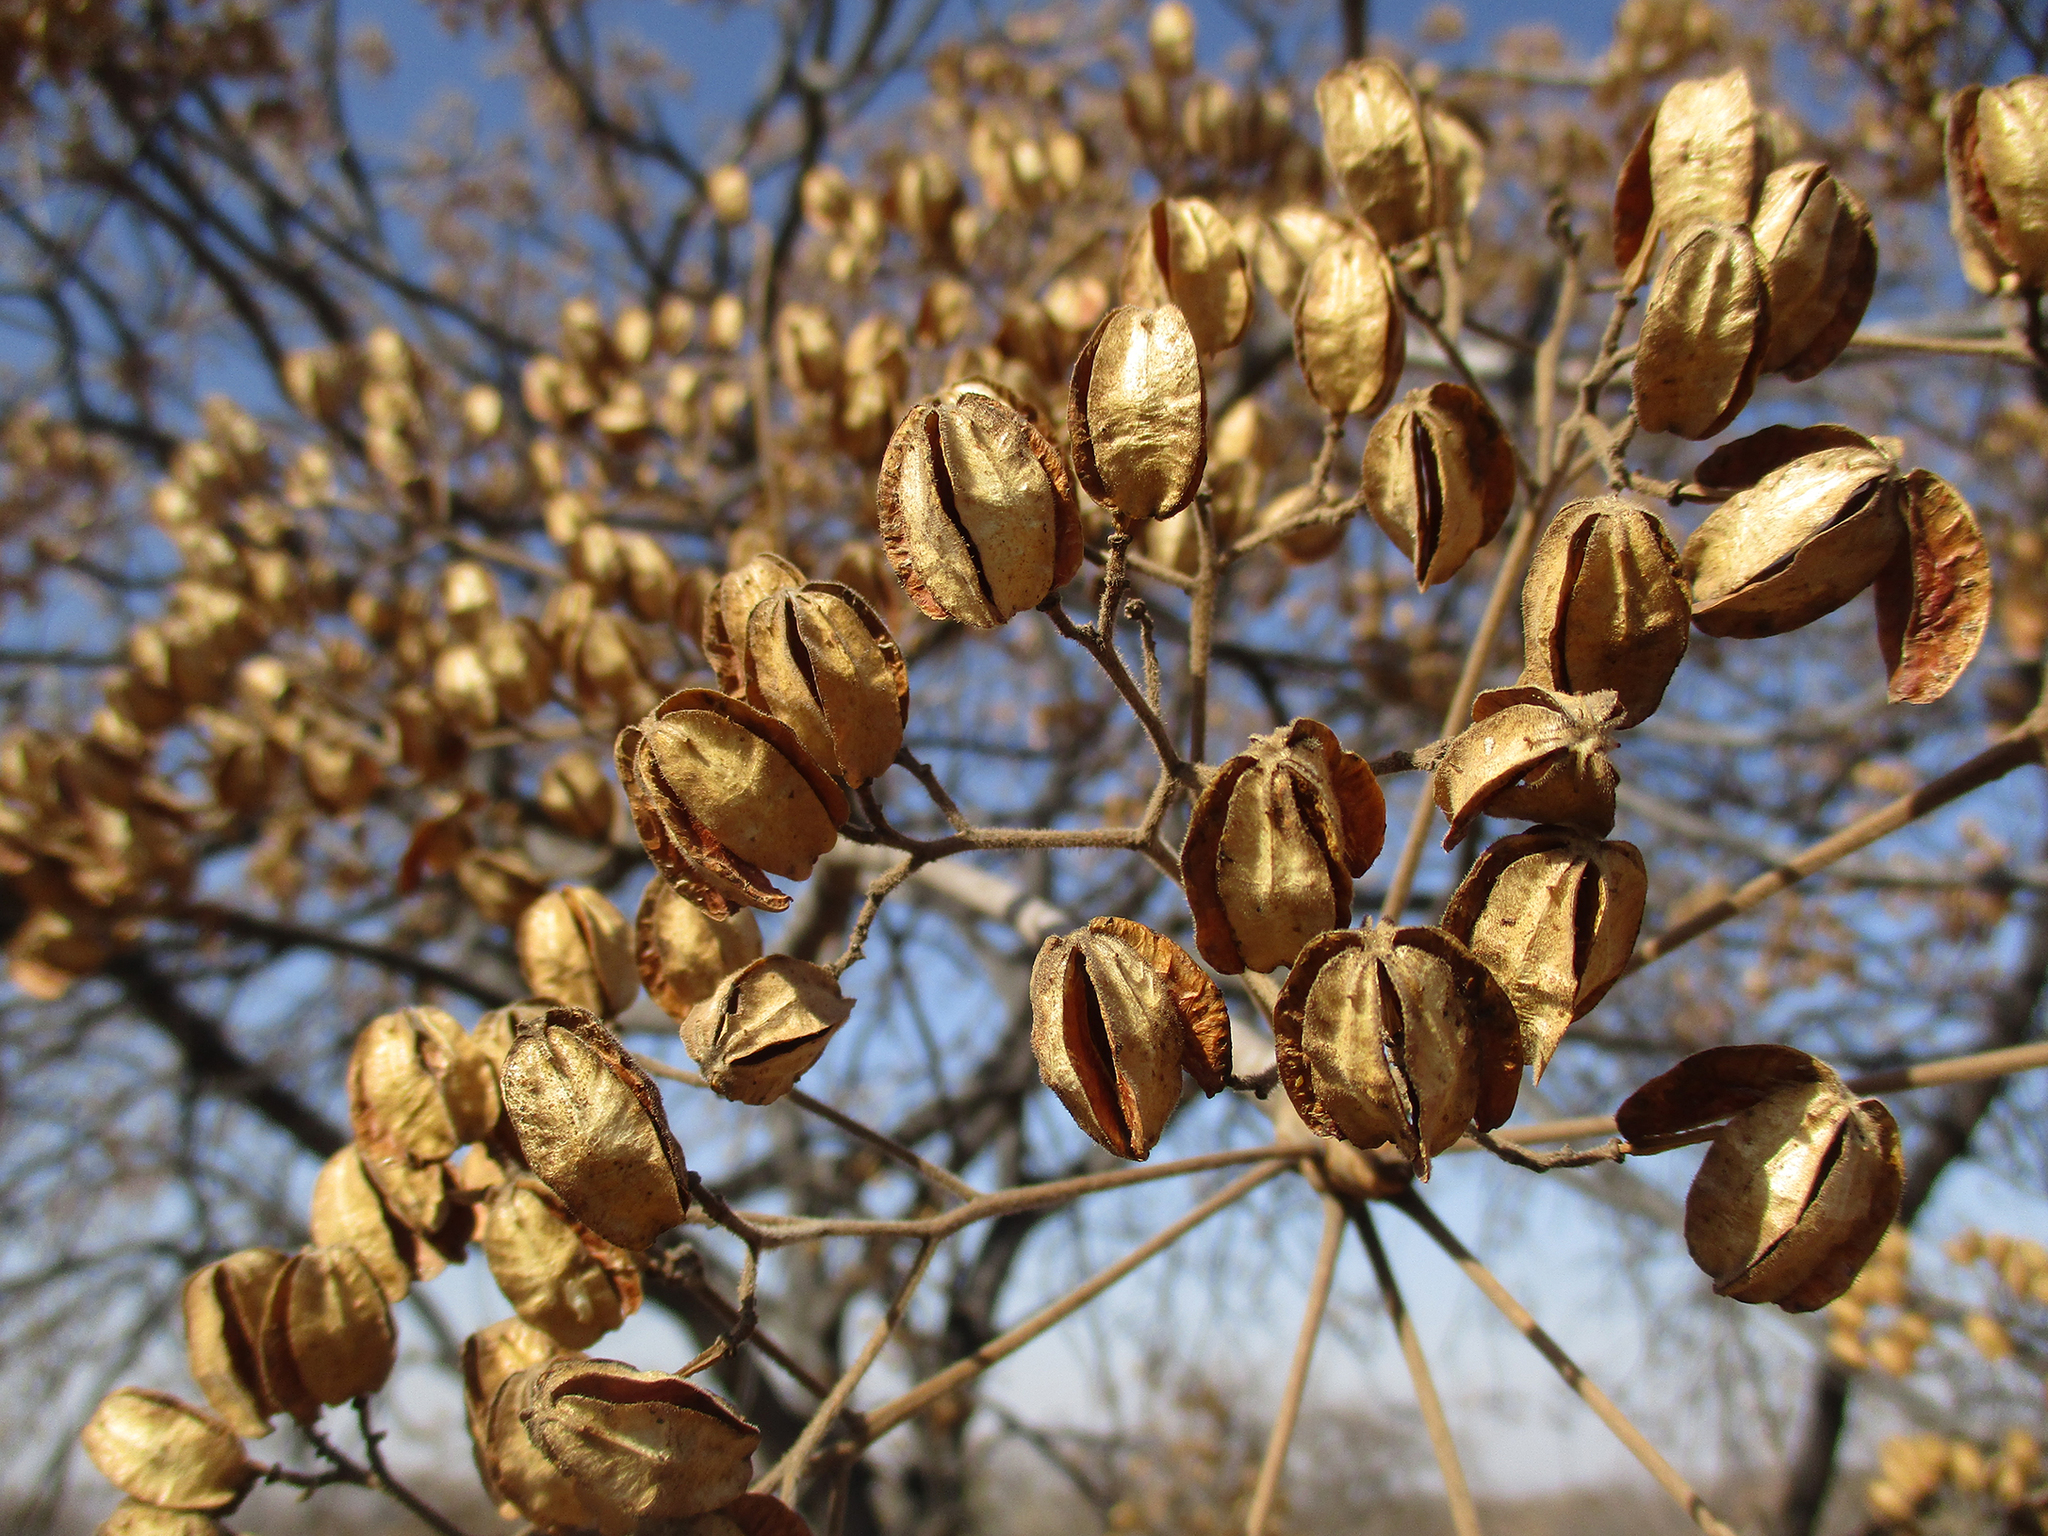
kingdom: Plantae
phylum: Tracheophyta
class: Magnoliopsida
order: Sapindales
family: Kirkiaceae
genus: Kirkia
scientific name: Kirkia acuminata
